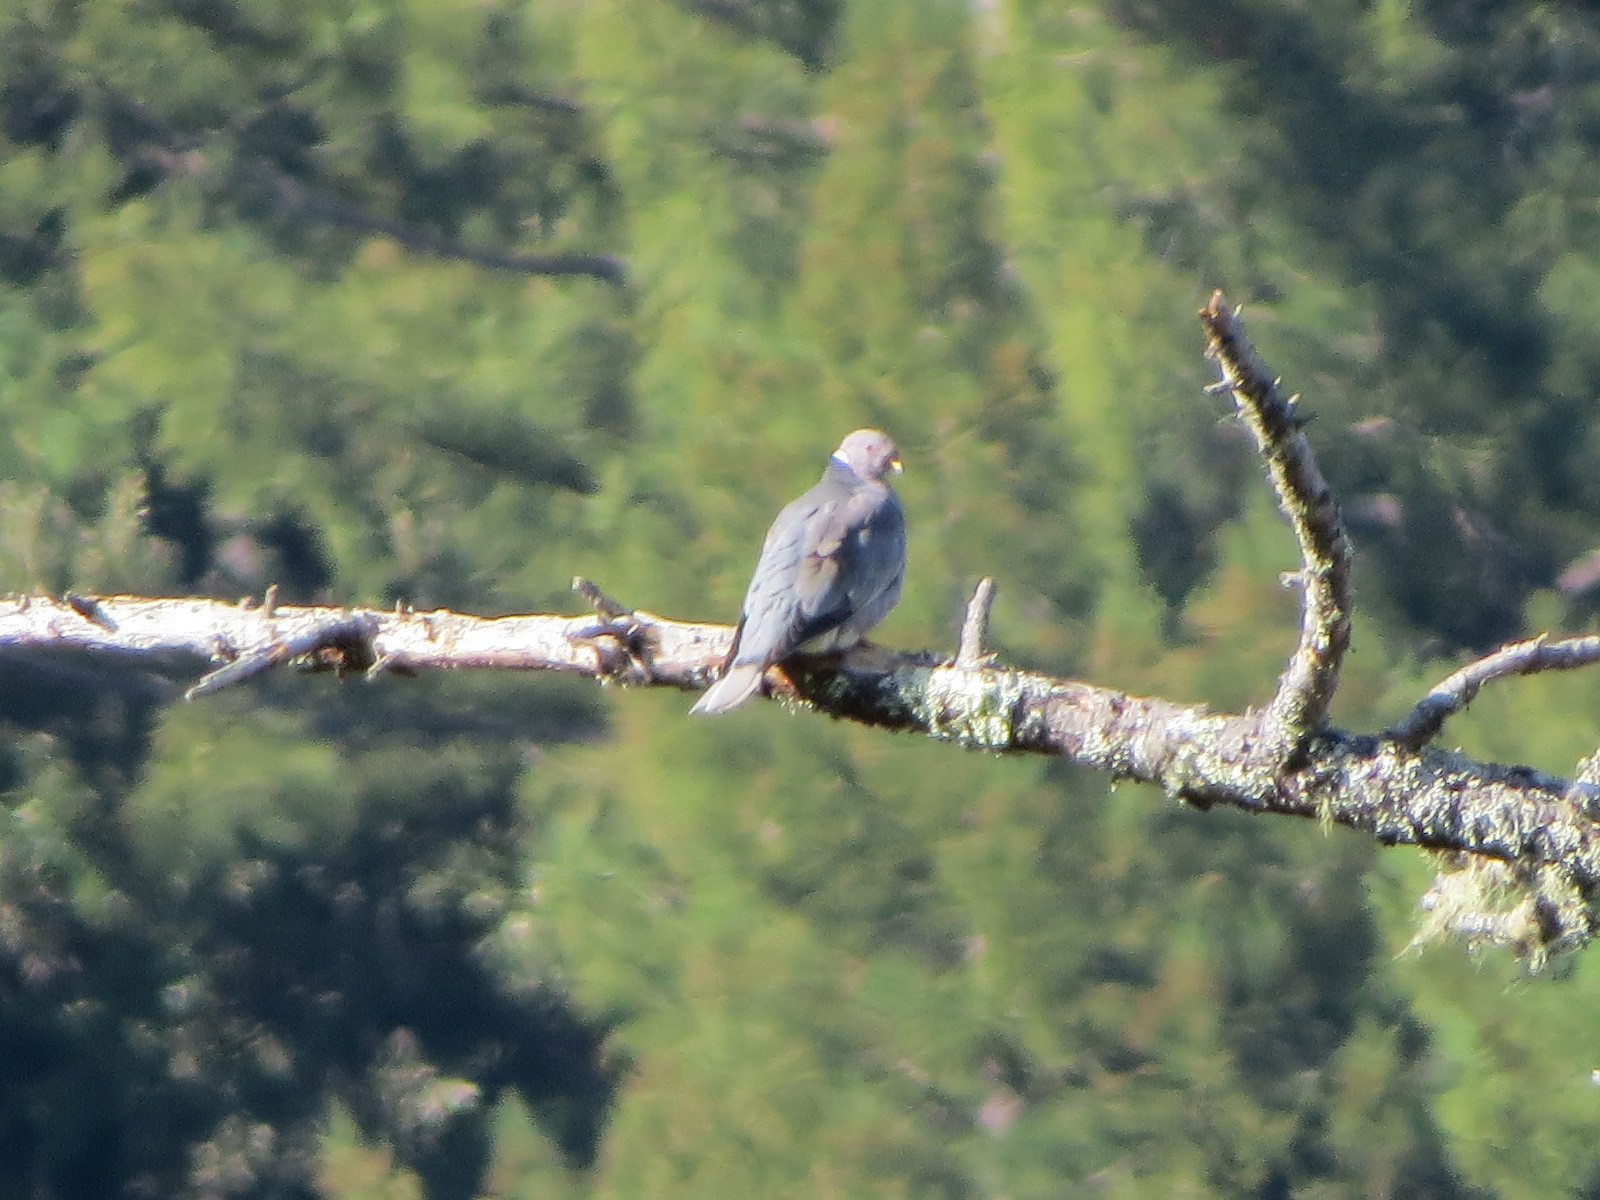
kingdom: Animalia
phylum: Chordata
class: Aves
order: Columbiformes
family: Columbidae
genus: Patagioenas
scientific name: Patagioenas fasciata
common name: Band-tailed pigeon
